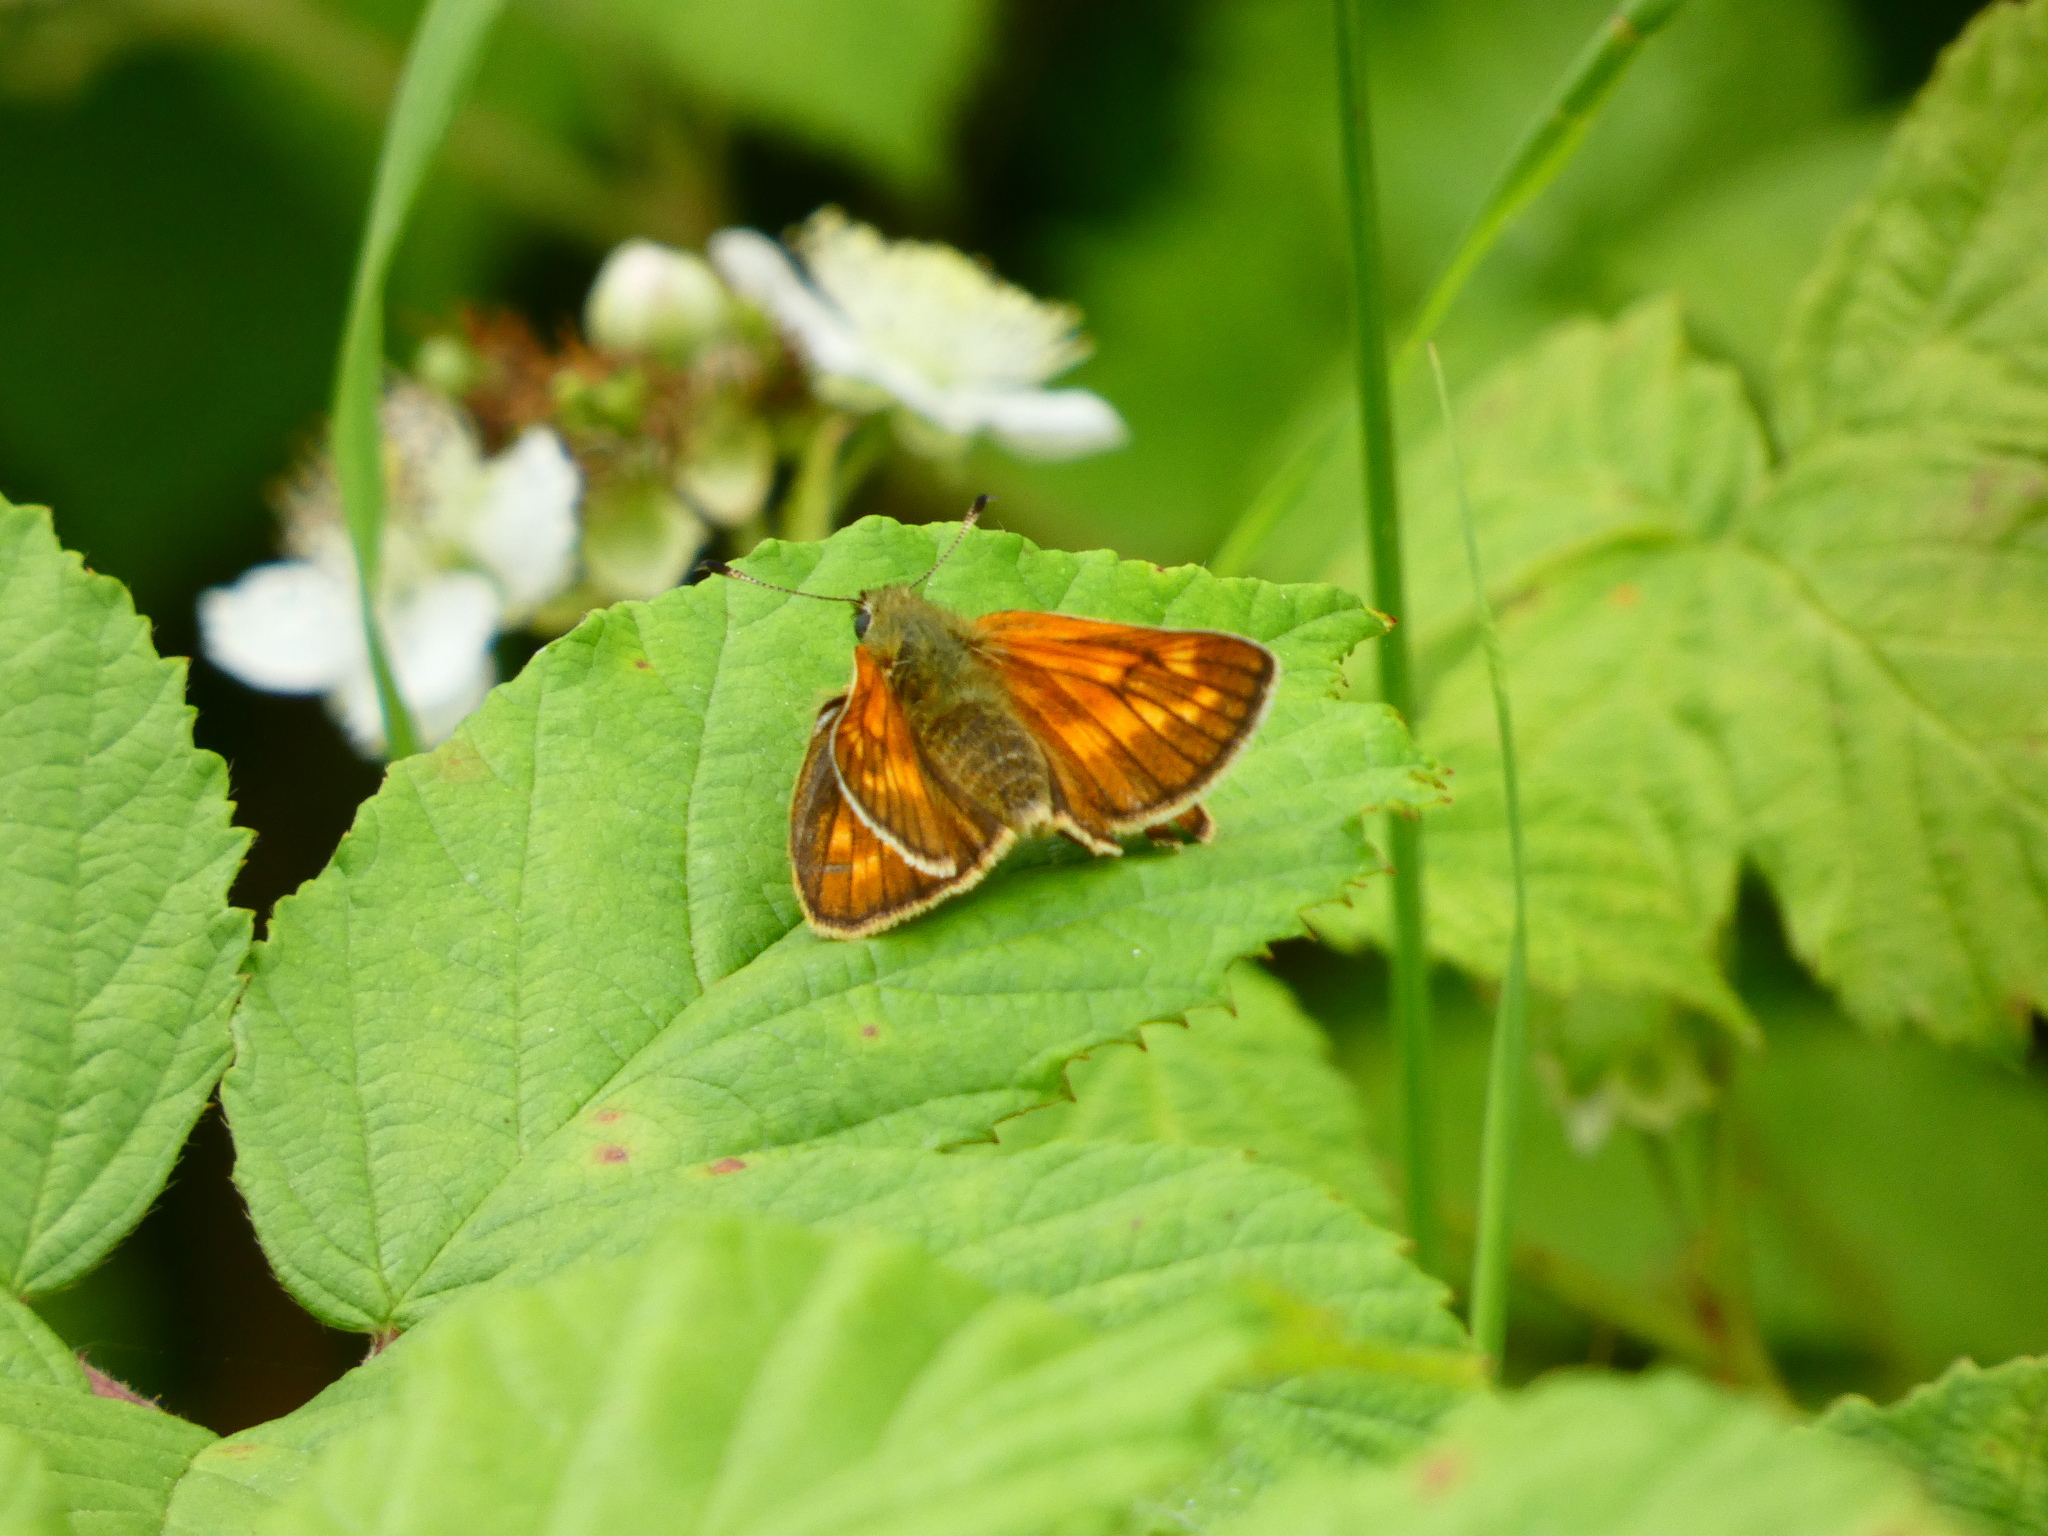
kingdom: Animalia
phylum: Arthropoda
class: Insecta
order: Lepidoptera
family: Hesperiidae
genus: Ochlodes
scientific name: Ochlodes venata
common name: Large skipper
